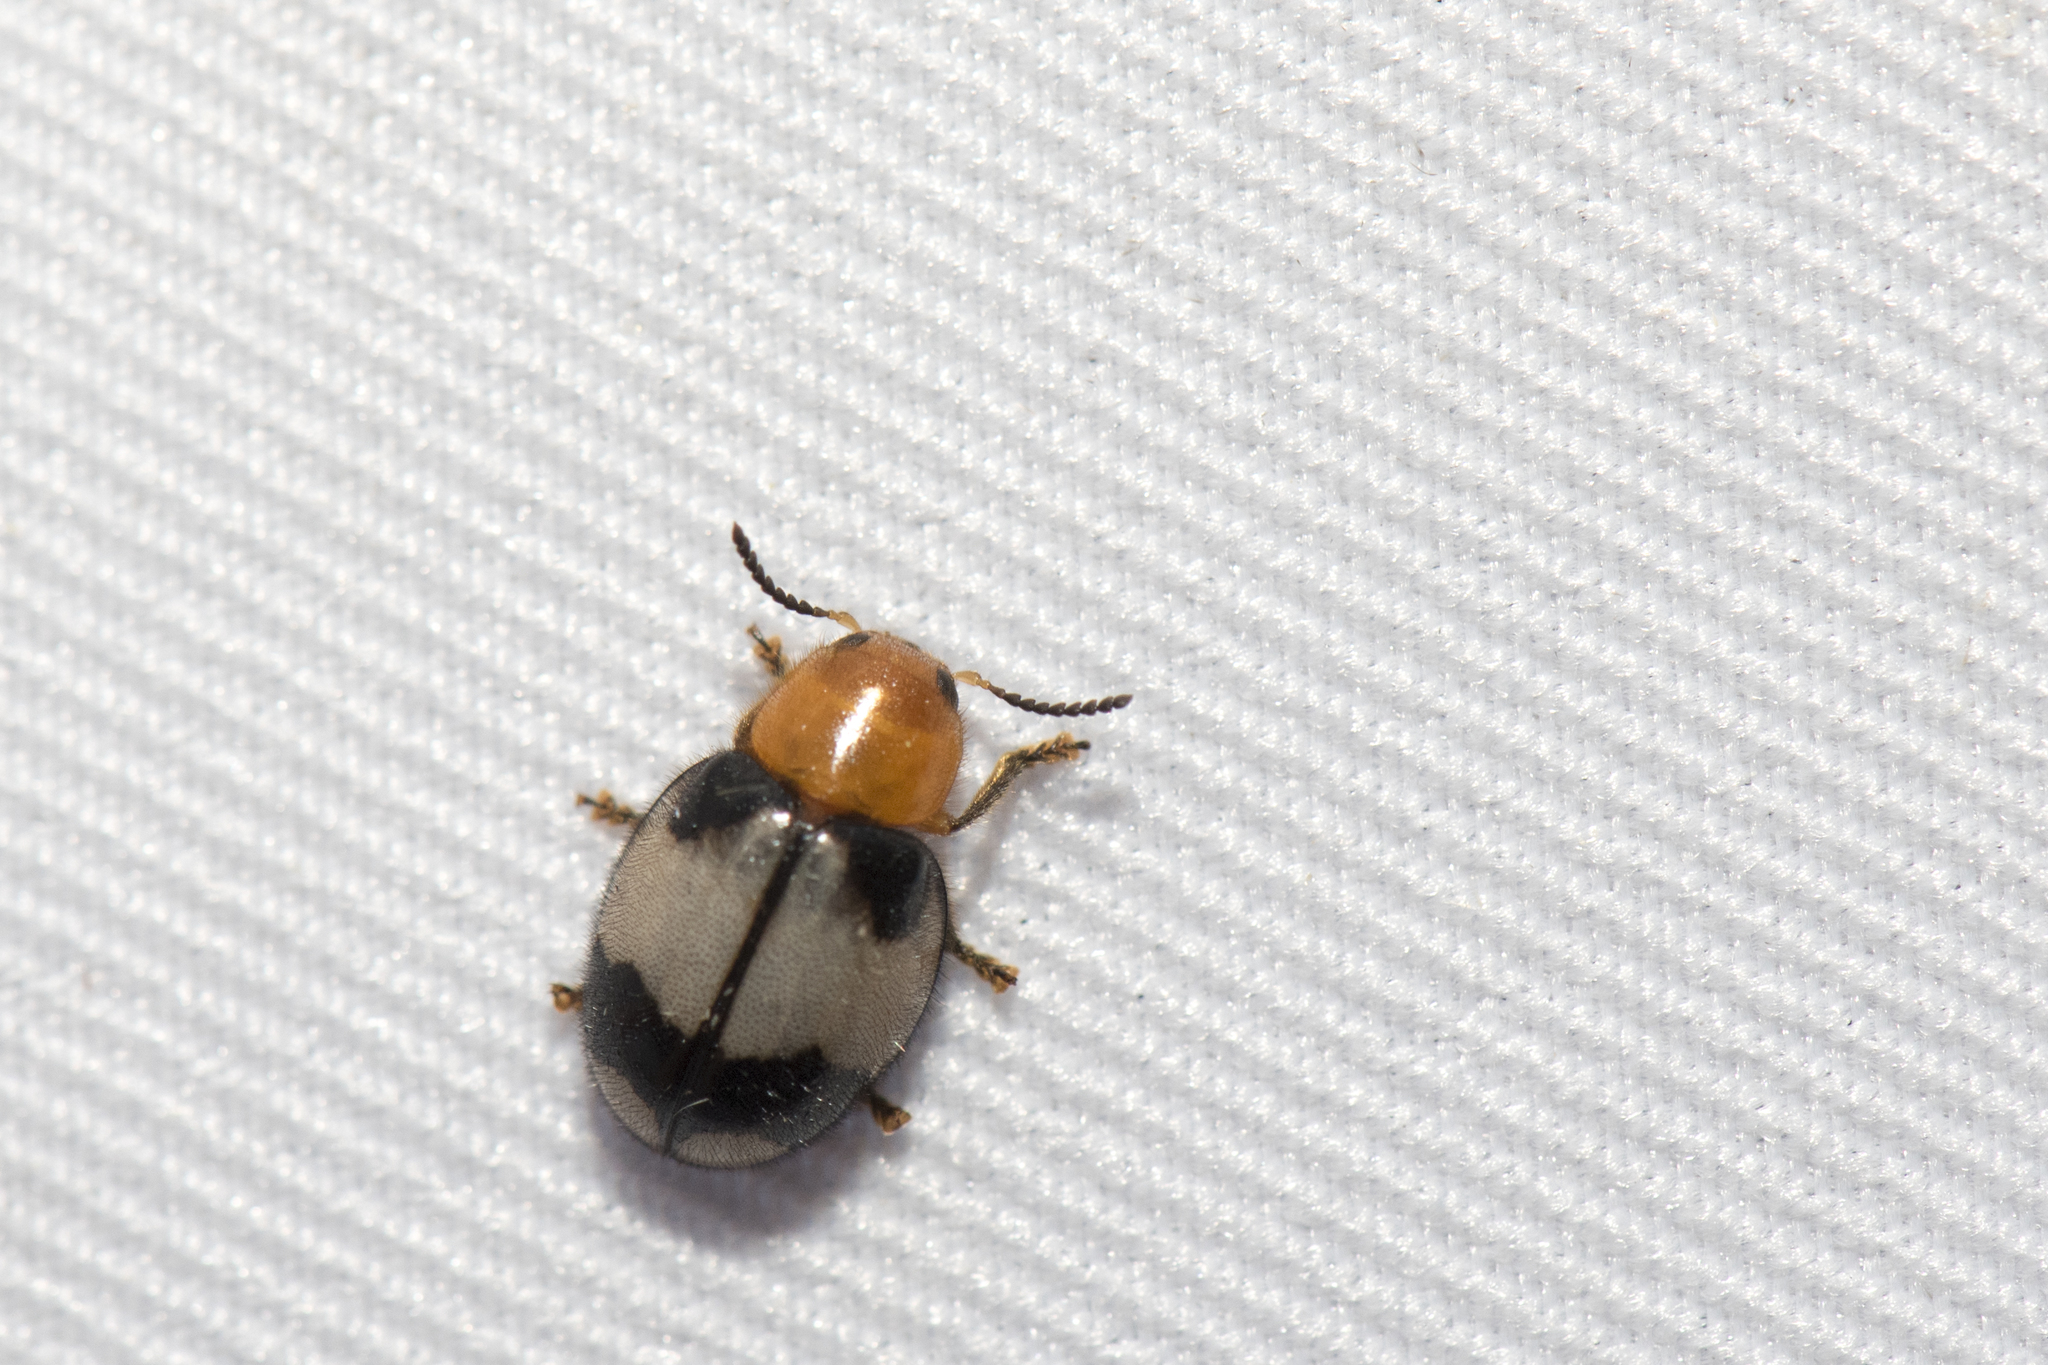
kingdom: Animalia
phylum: Arthropoda
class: Insecta
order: Coleoptera
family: Cleridae
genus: Allochotes
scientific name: Allochotes choui
